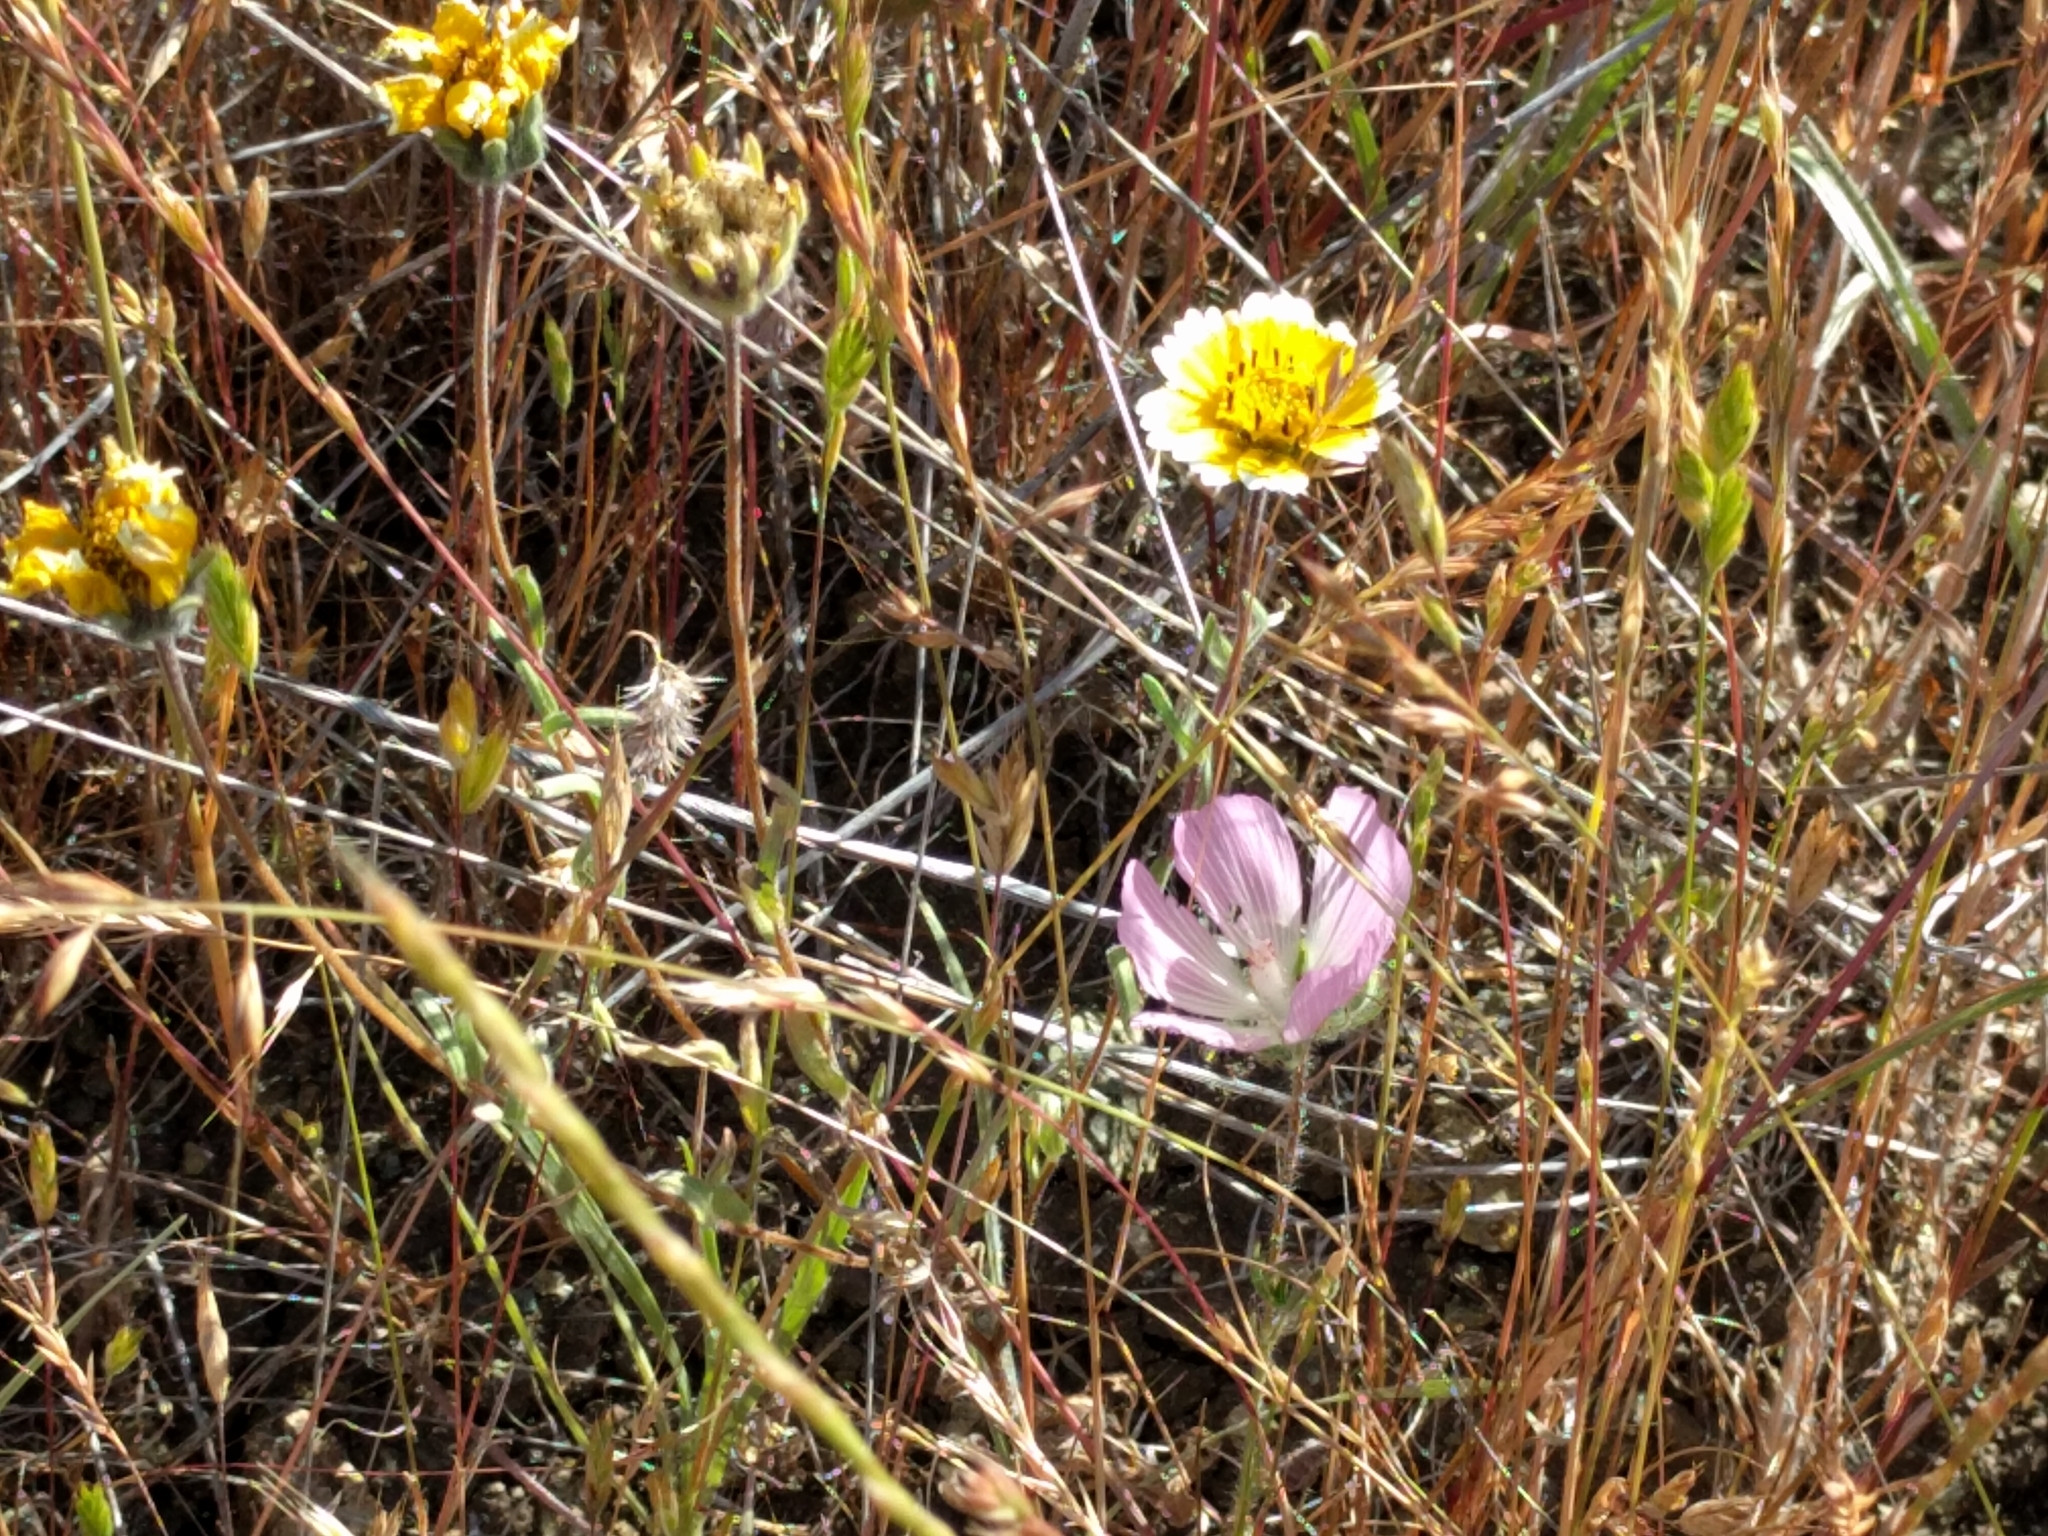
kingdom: Plantae
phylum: Tracheophyta
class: Magnoliopsida
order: Asterales
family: Asteraceae
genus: Layia
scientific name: Layia platyglossa
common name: Tidy-tips
